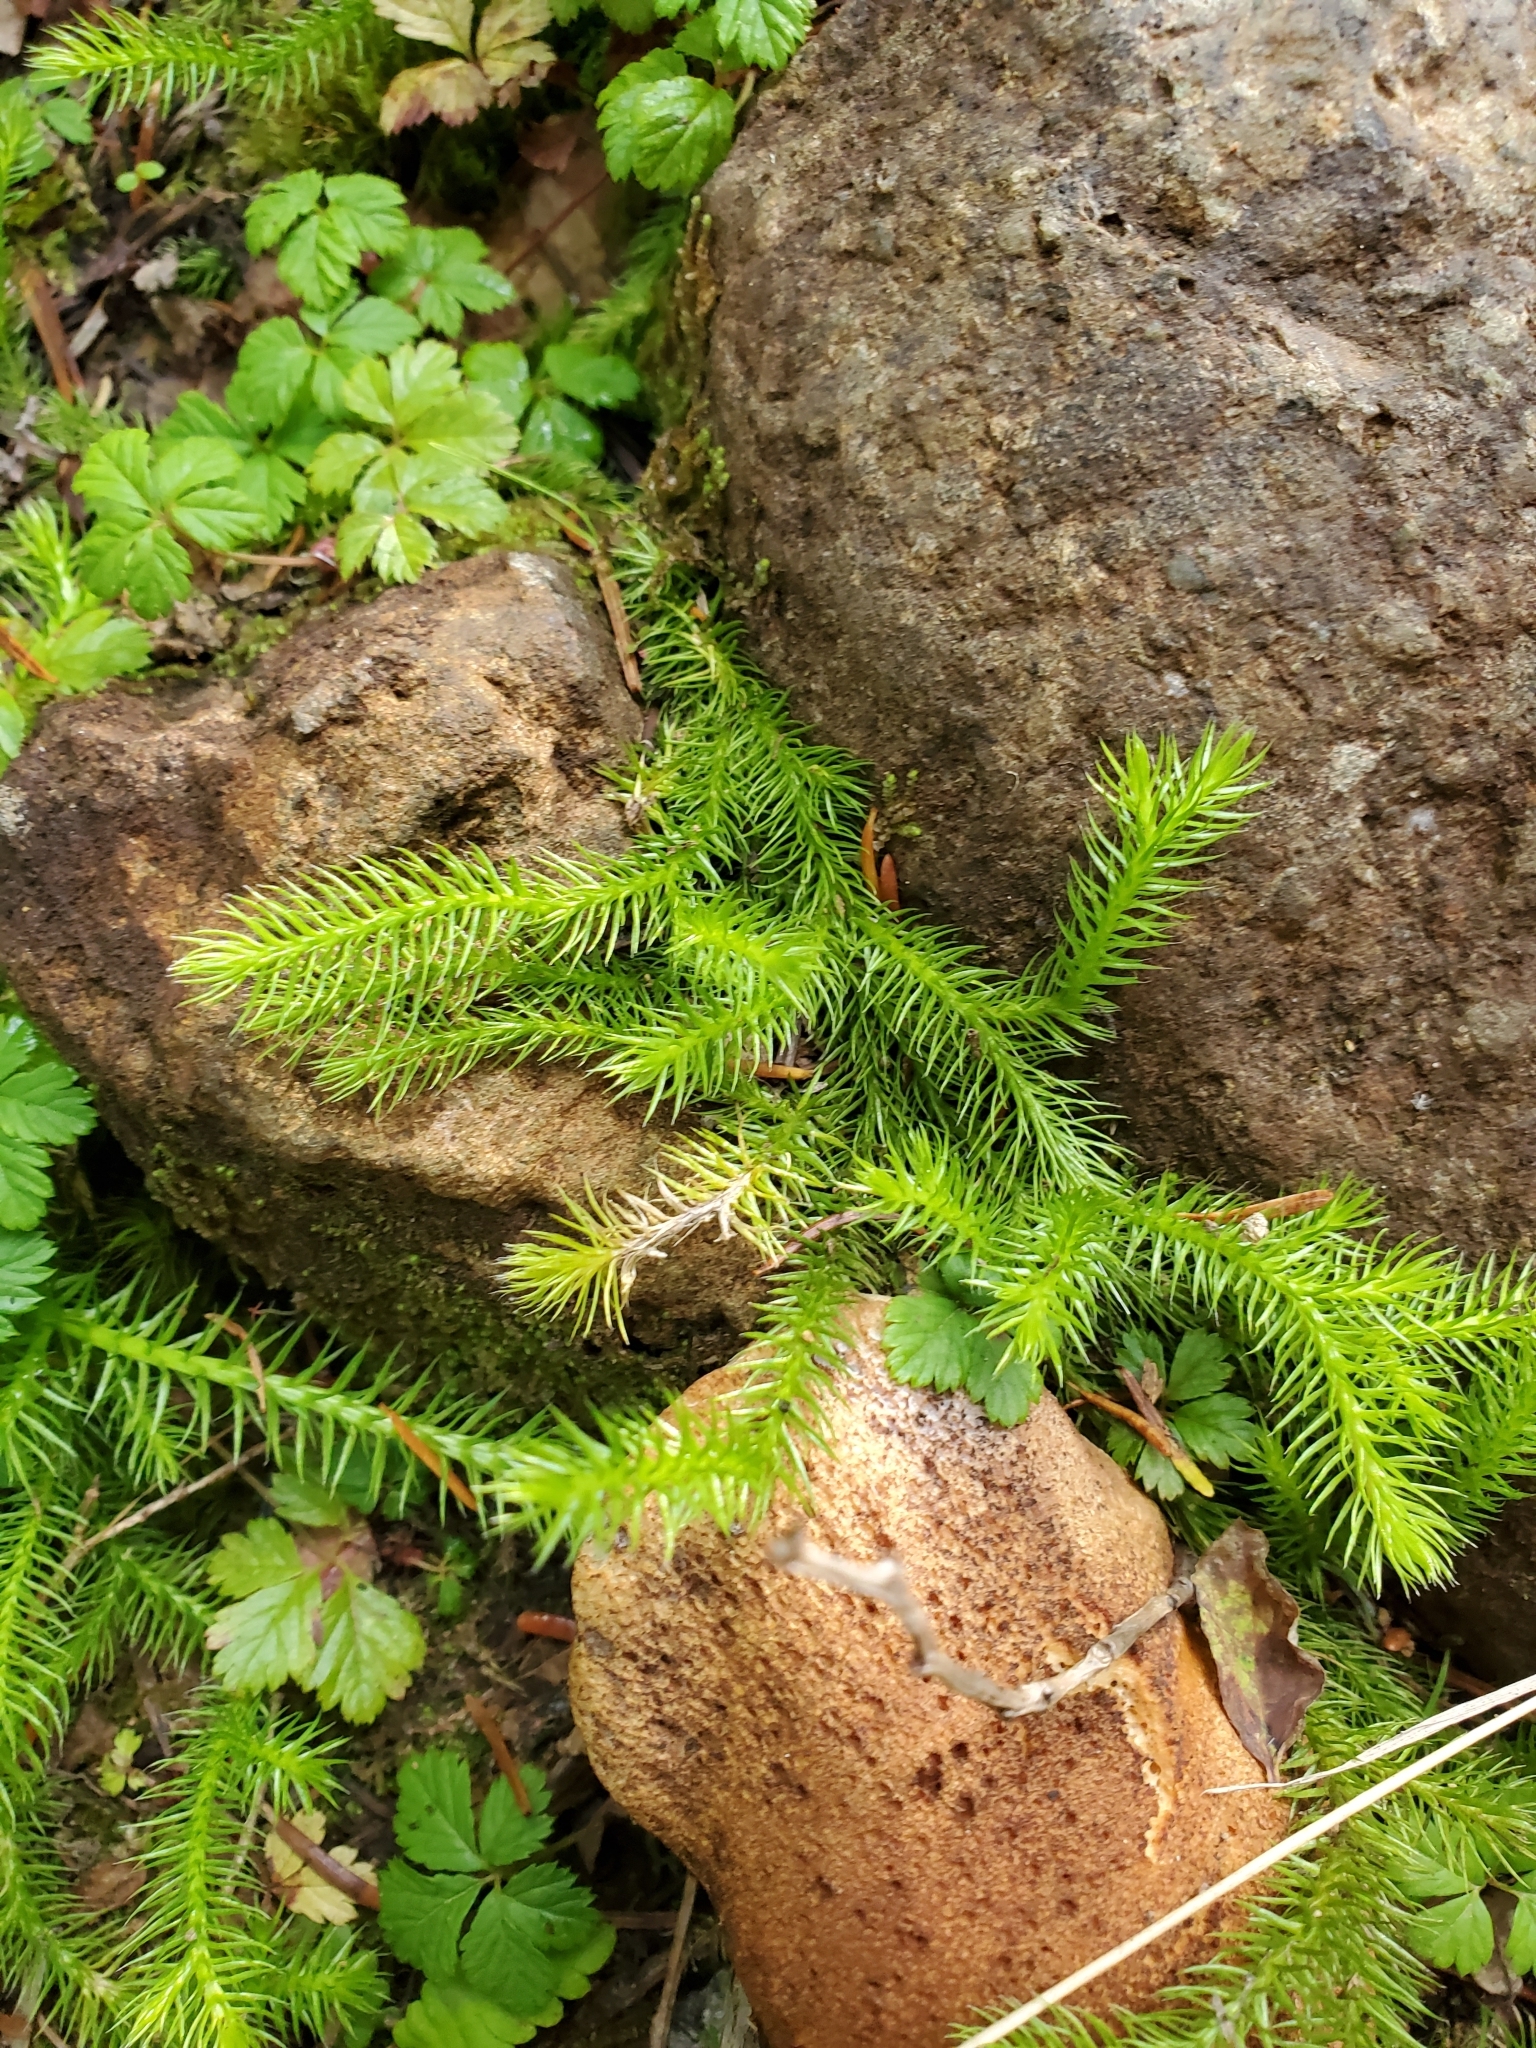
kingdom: Plantae
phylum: Tracheophyta
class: Lycopodiopsida
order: Lycopodiales
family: Lycopodiaceae
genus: Lycopodium
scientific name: Lycopodium clavatum
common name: Stag's-horn clubmoss
